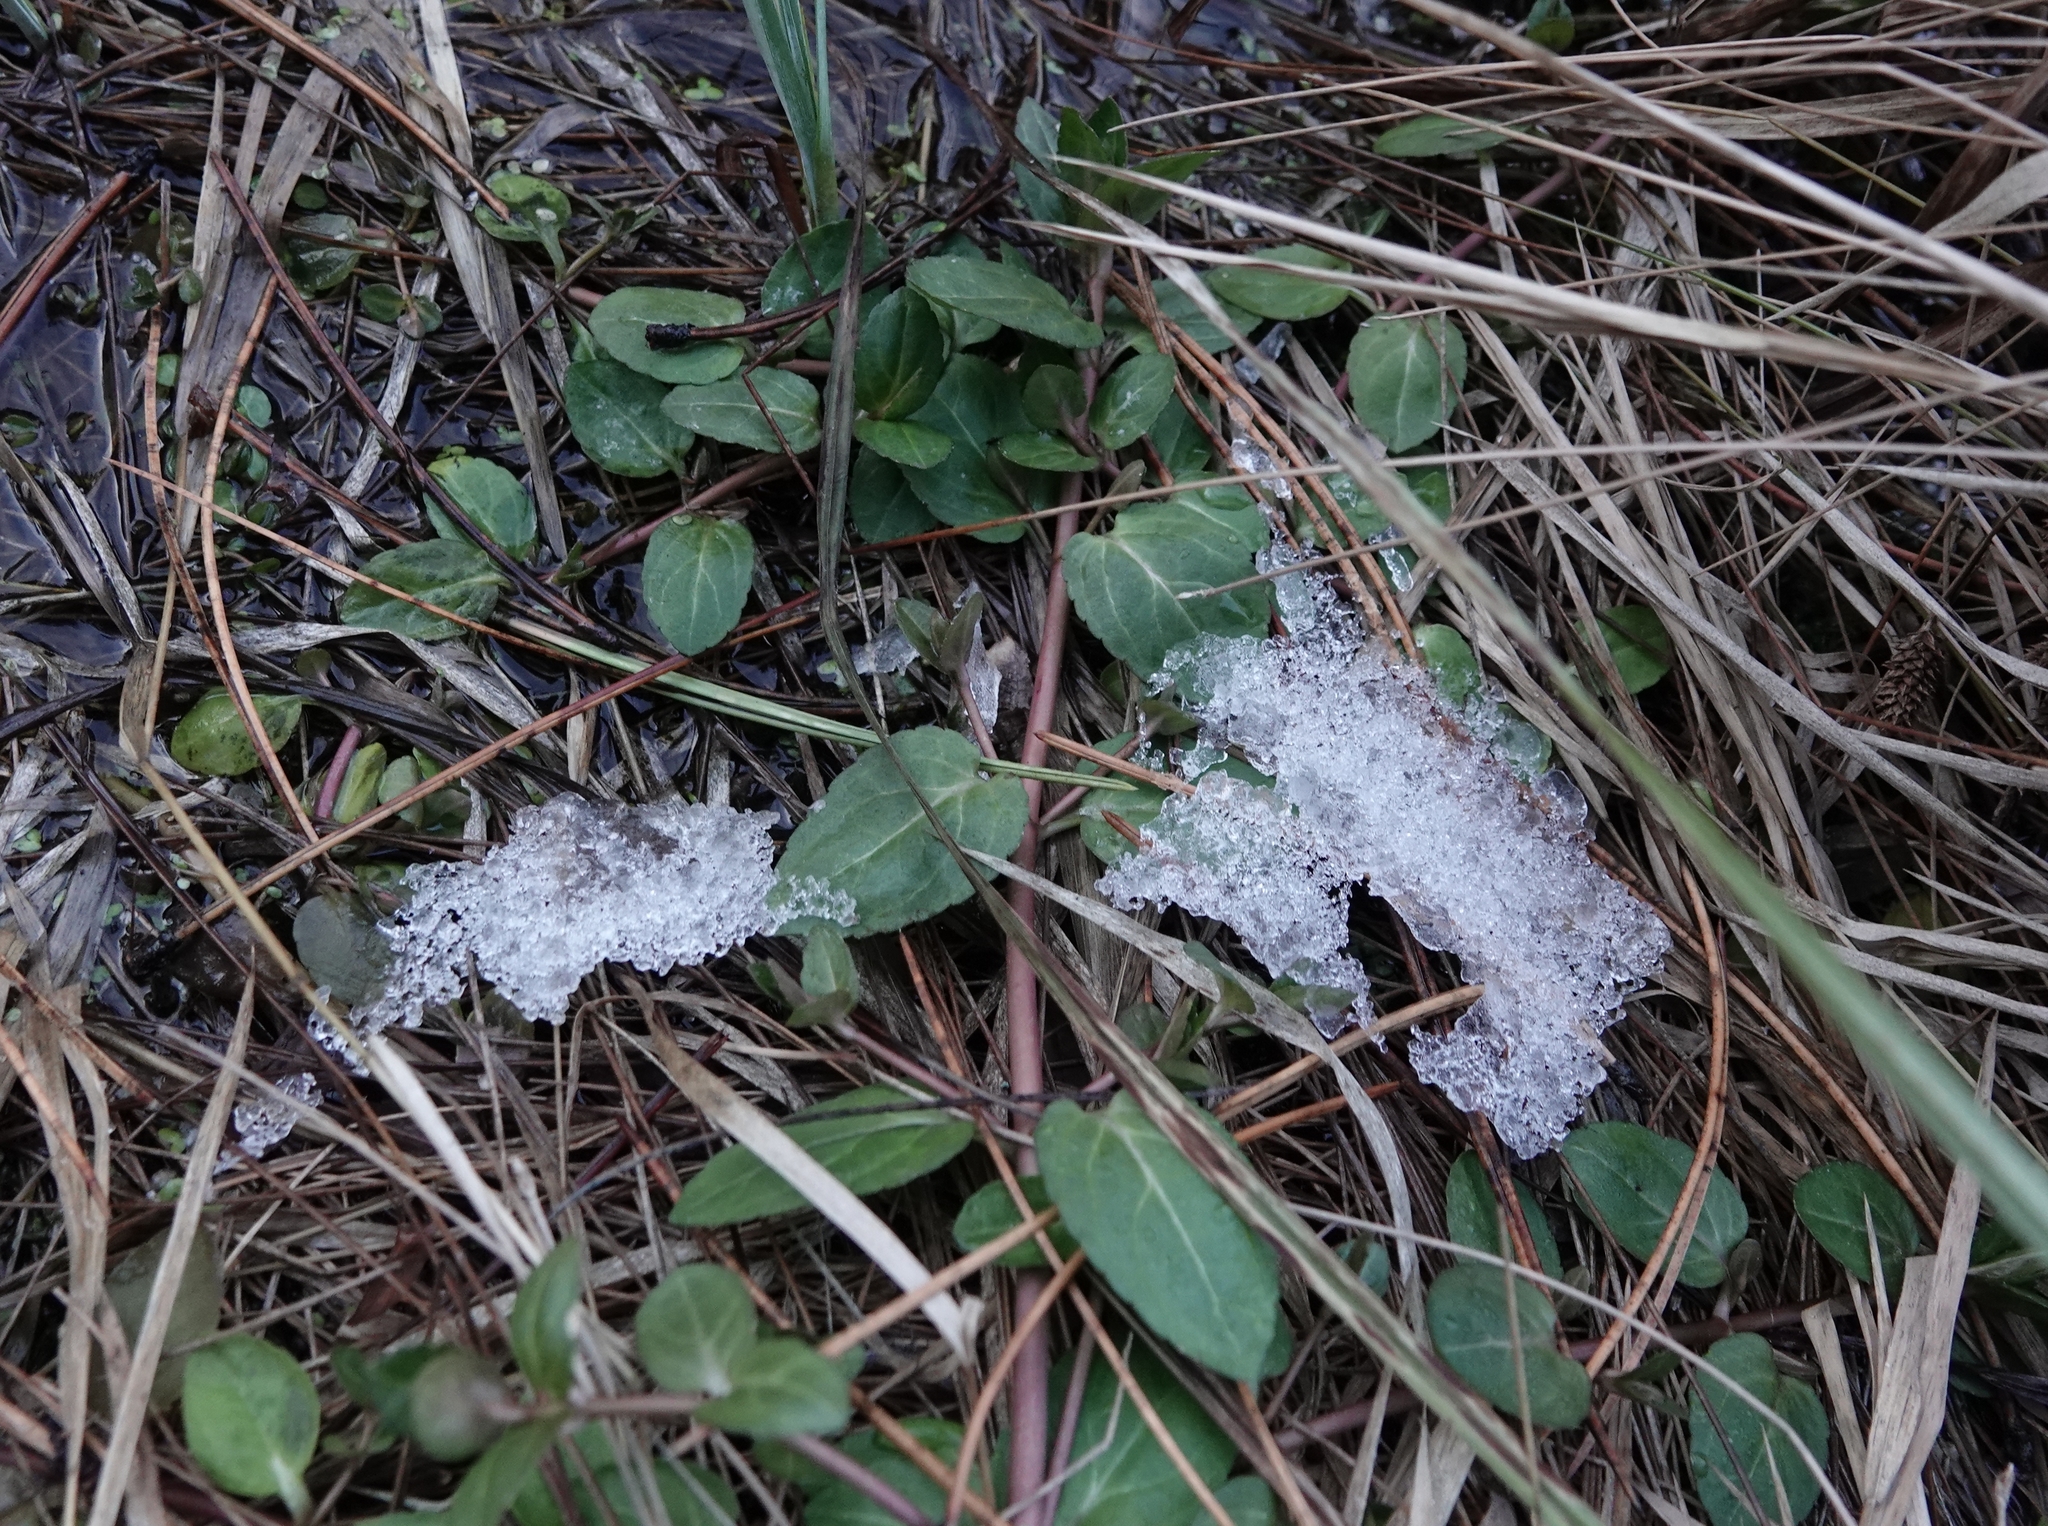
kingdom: Plantae
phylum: Tracheophyta
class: Magnoliopsida
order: Lamiales
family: Plantaginaceae
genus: Veronica
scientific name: Veronica americana
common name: American brooklime
